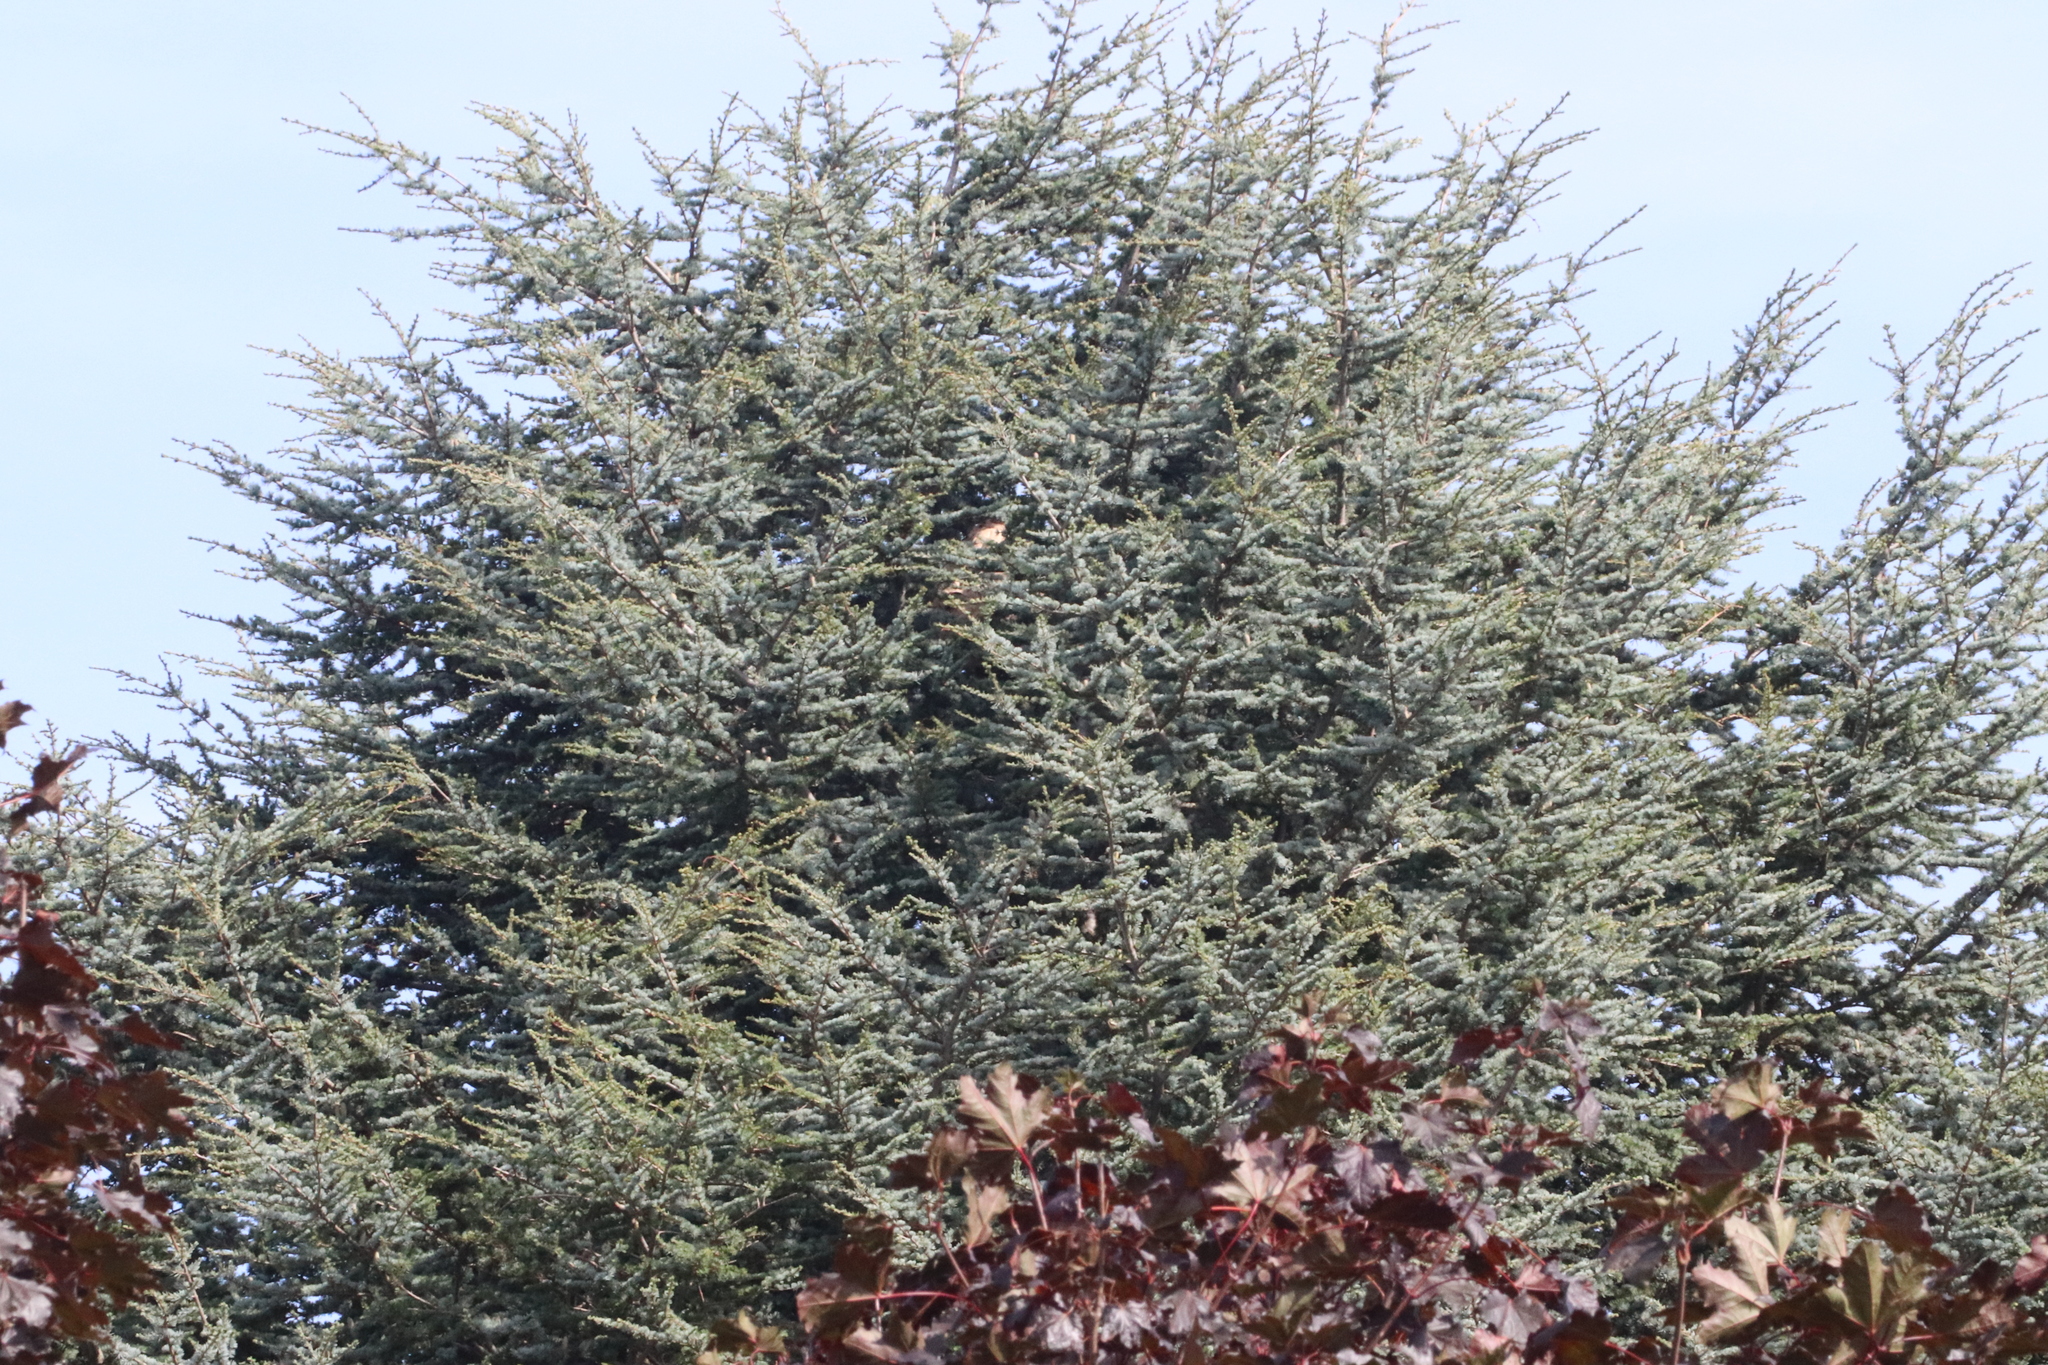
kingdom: Animalia
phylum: Arthropoda
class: Insecta
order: Hymenoptera
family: Vespidae
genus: Vespa
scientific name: Vespa velutina
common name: Asian hornet
